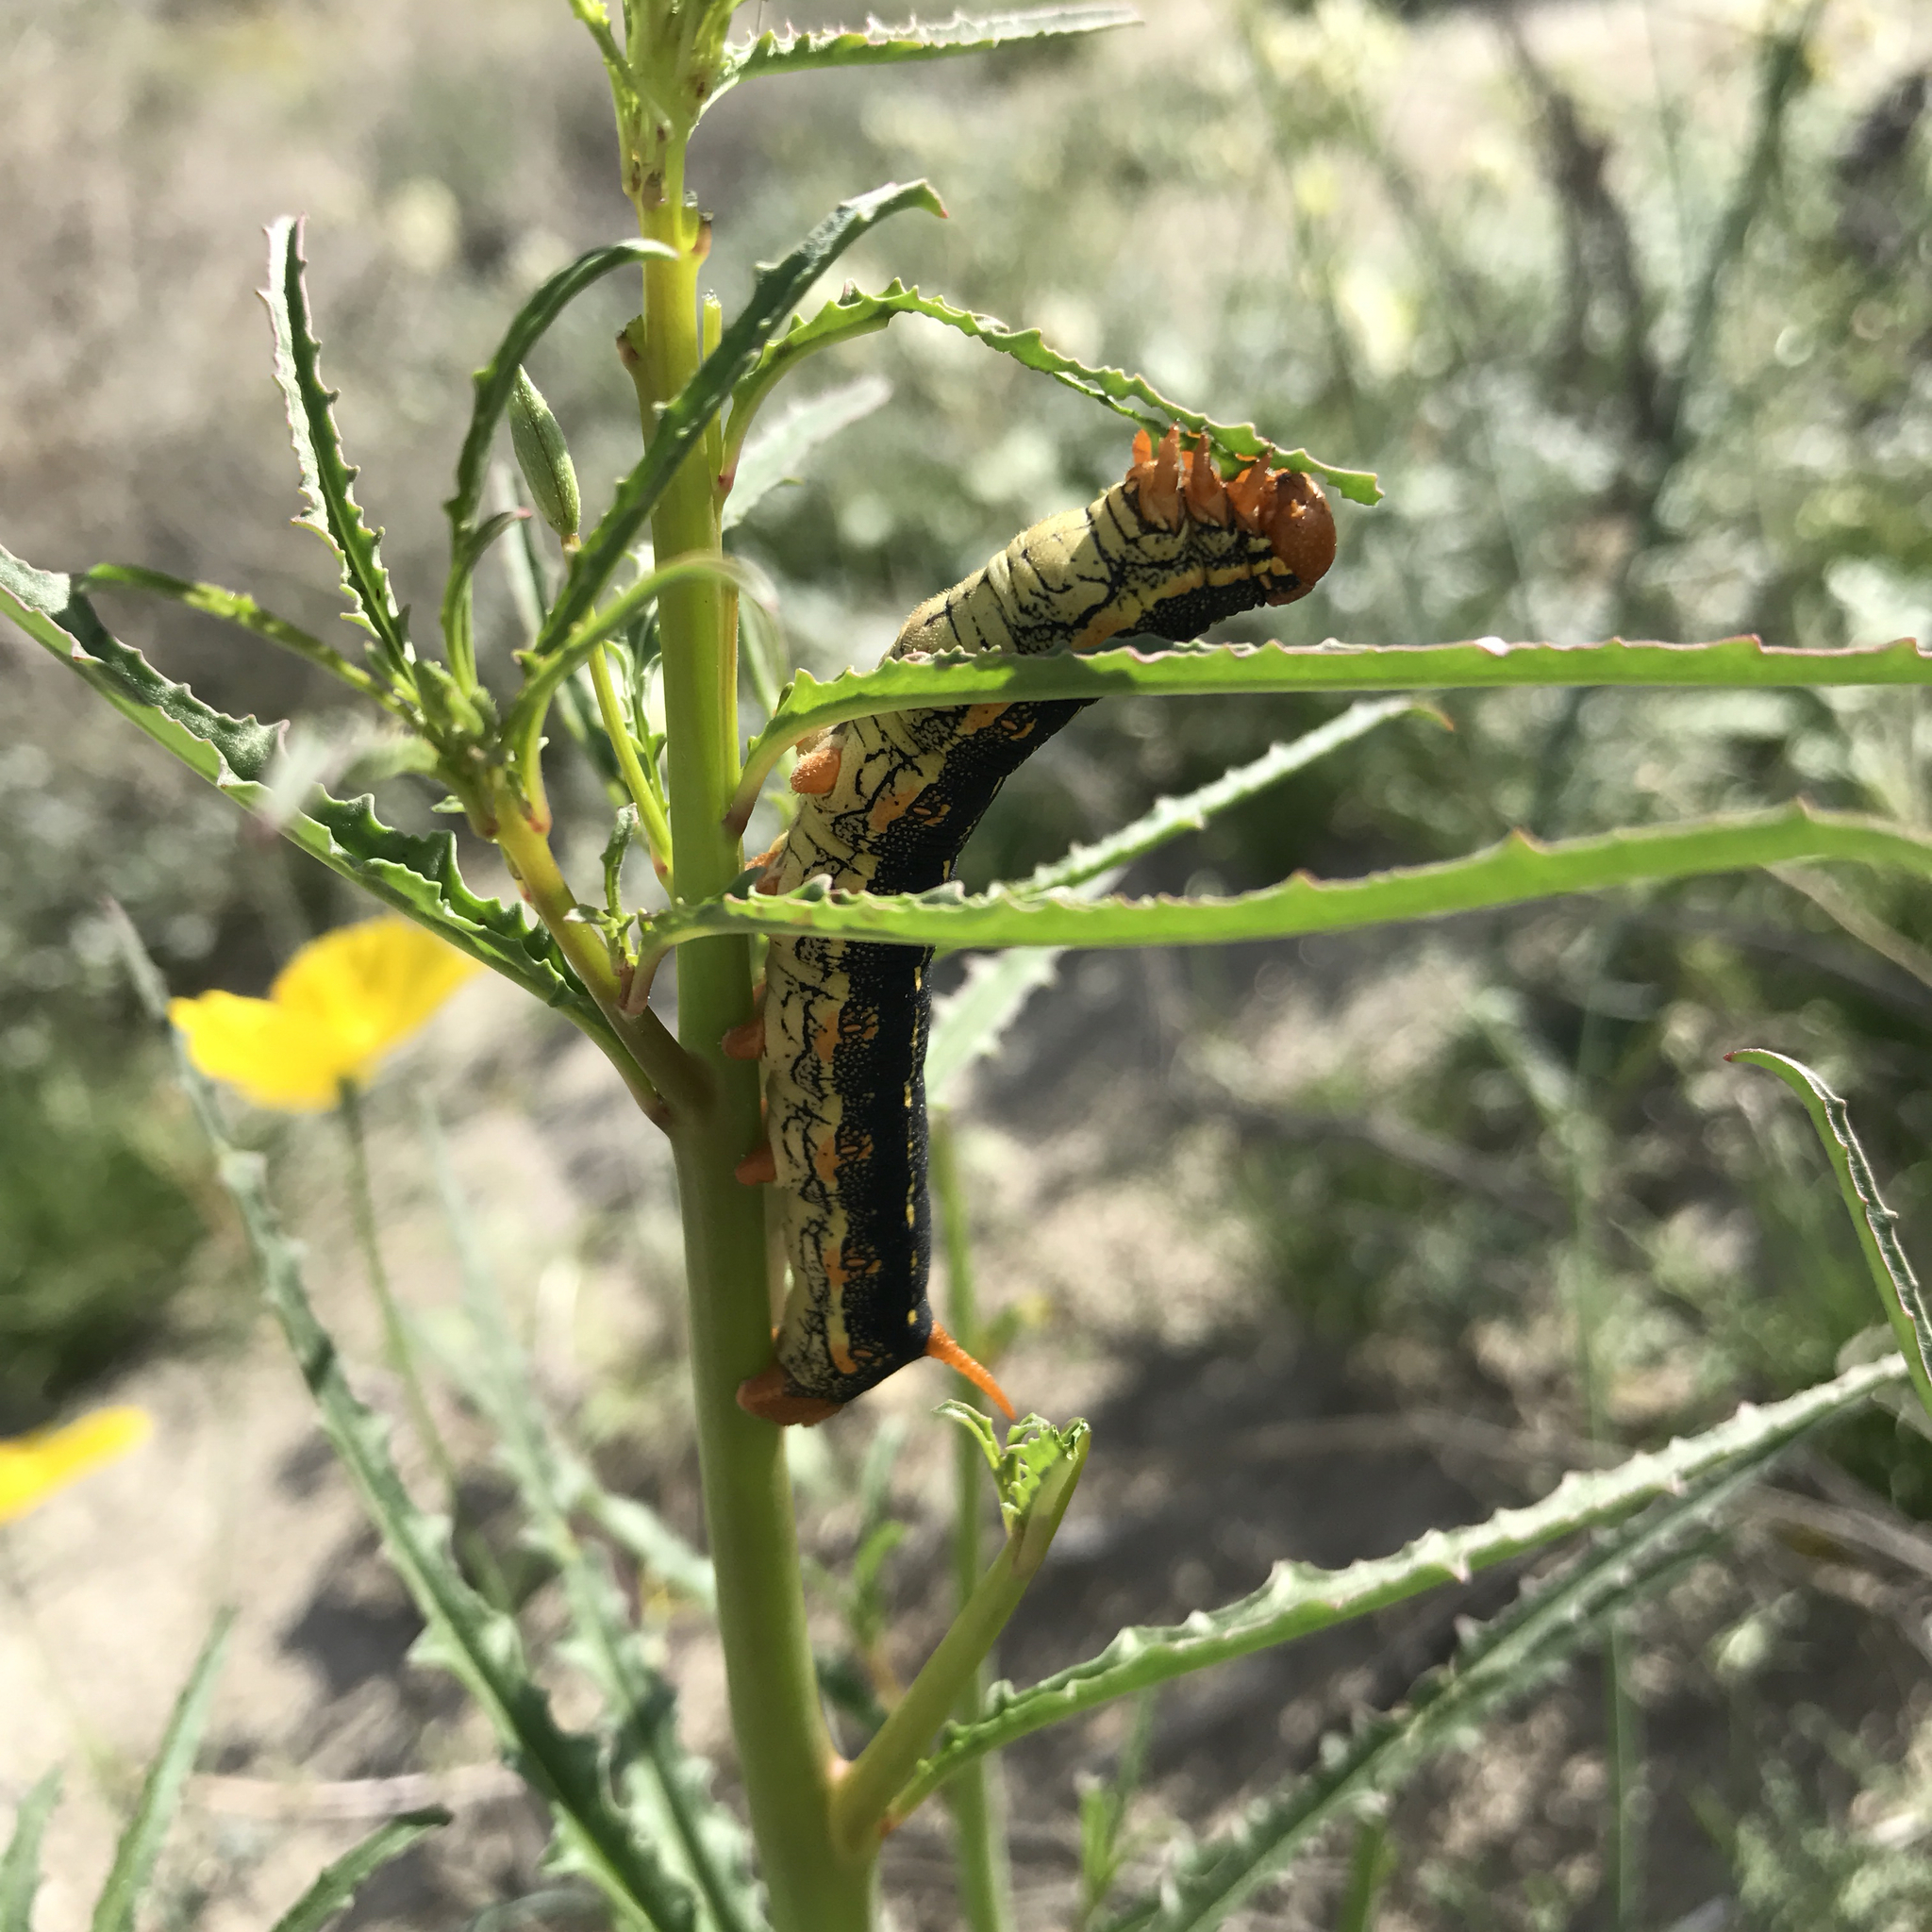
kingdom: Animalia
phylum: Arthropoda
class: Insecta
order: Lepidoptera
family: Sphingidae
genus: Hyles
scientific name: Hyles lineata
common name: White-lined sphinx
